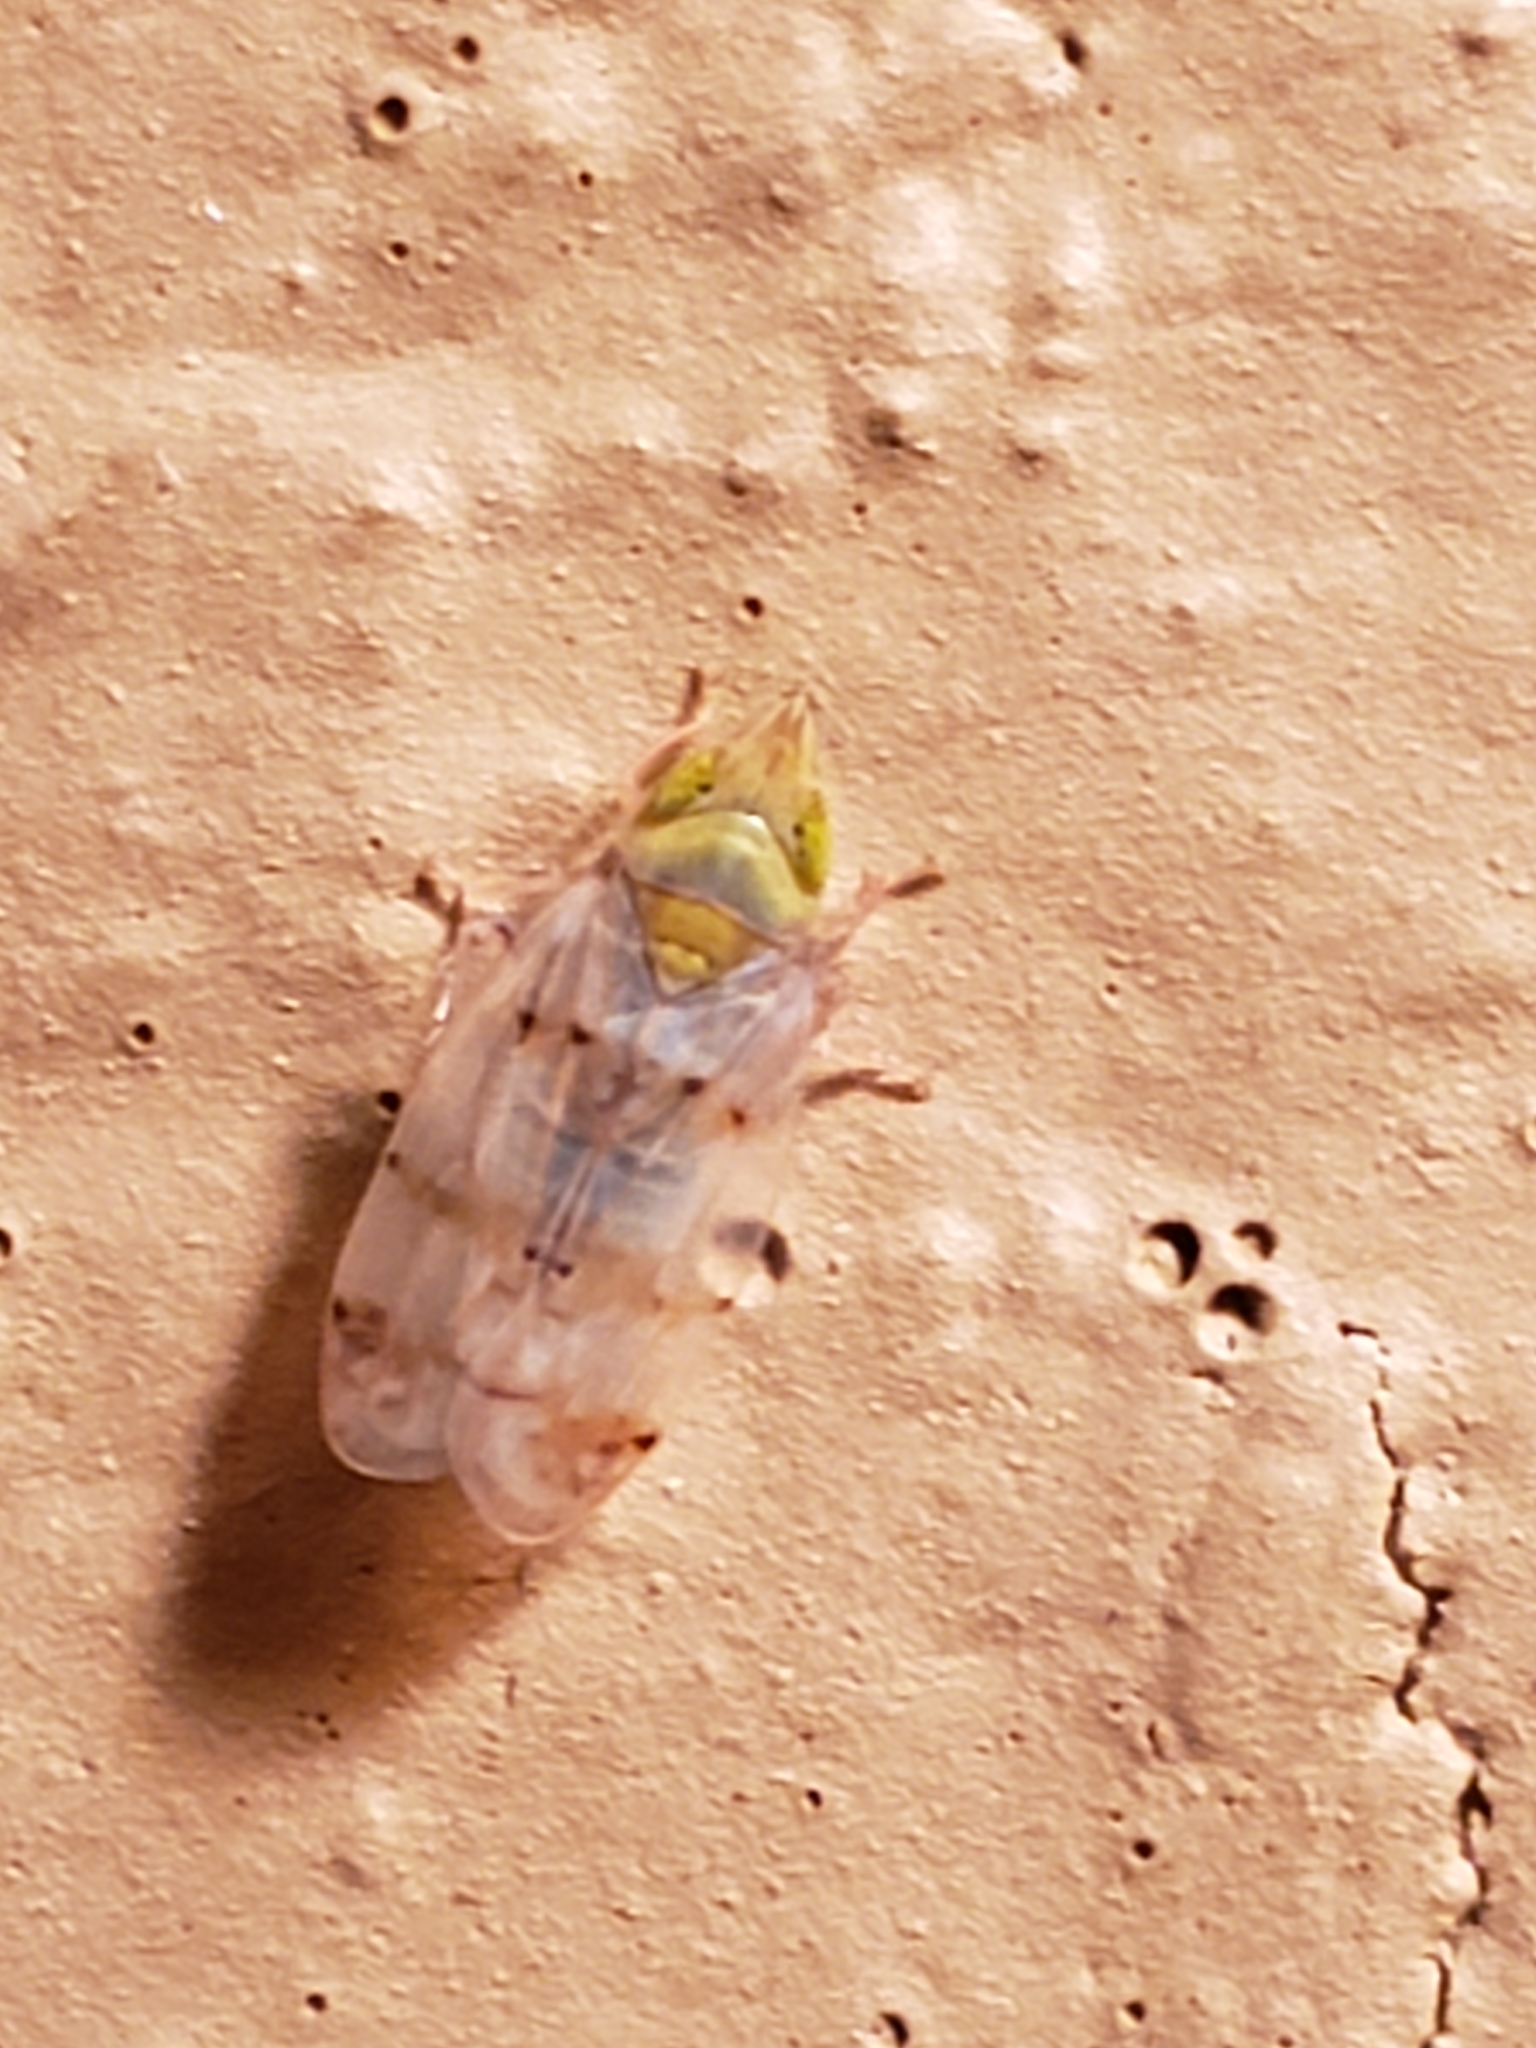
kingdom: Animalia
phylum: Arthropoda
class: Insecta
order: Hemiptera
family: Cicadellidae
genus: Japananus
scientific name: Japananus hyalinus
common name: The japanese maple leafhopper
